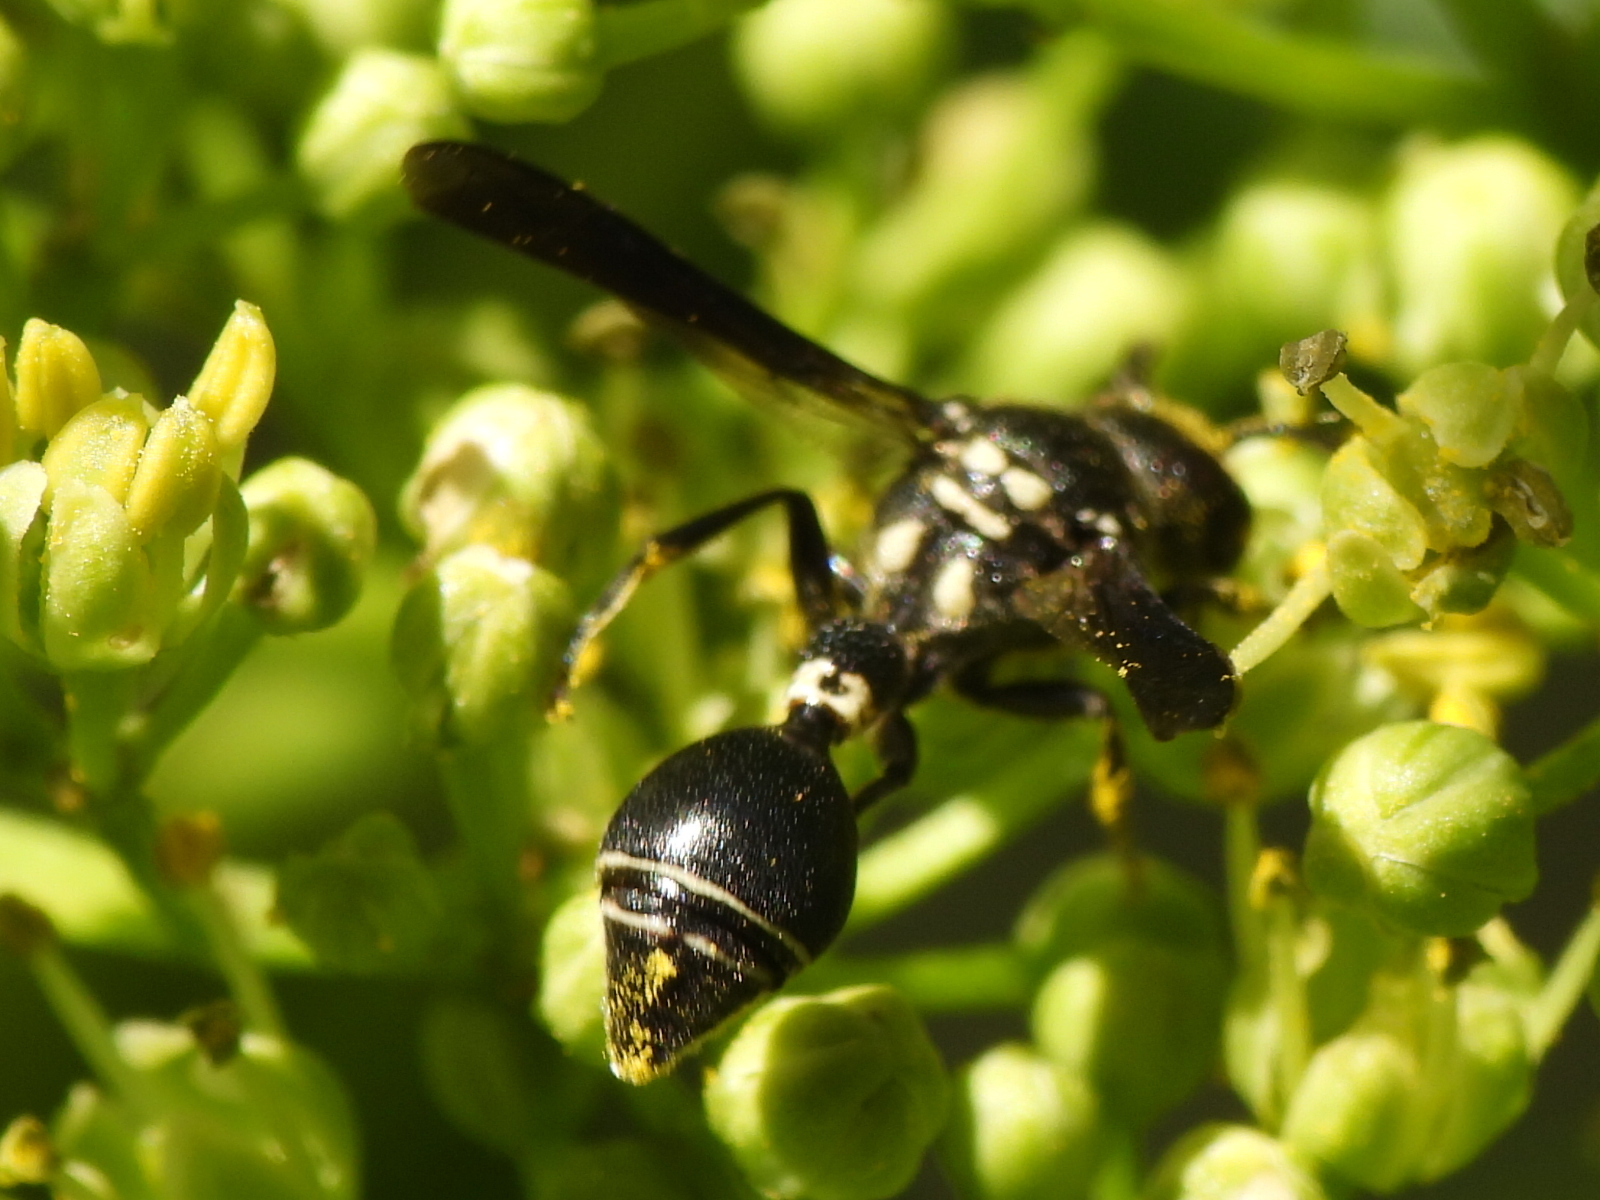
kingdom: Animalia
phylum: Arthropoda
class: Insecta
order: Hymenoptera
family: Eumenidae
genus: Zethus
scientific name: Zethus spinipes
